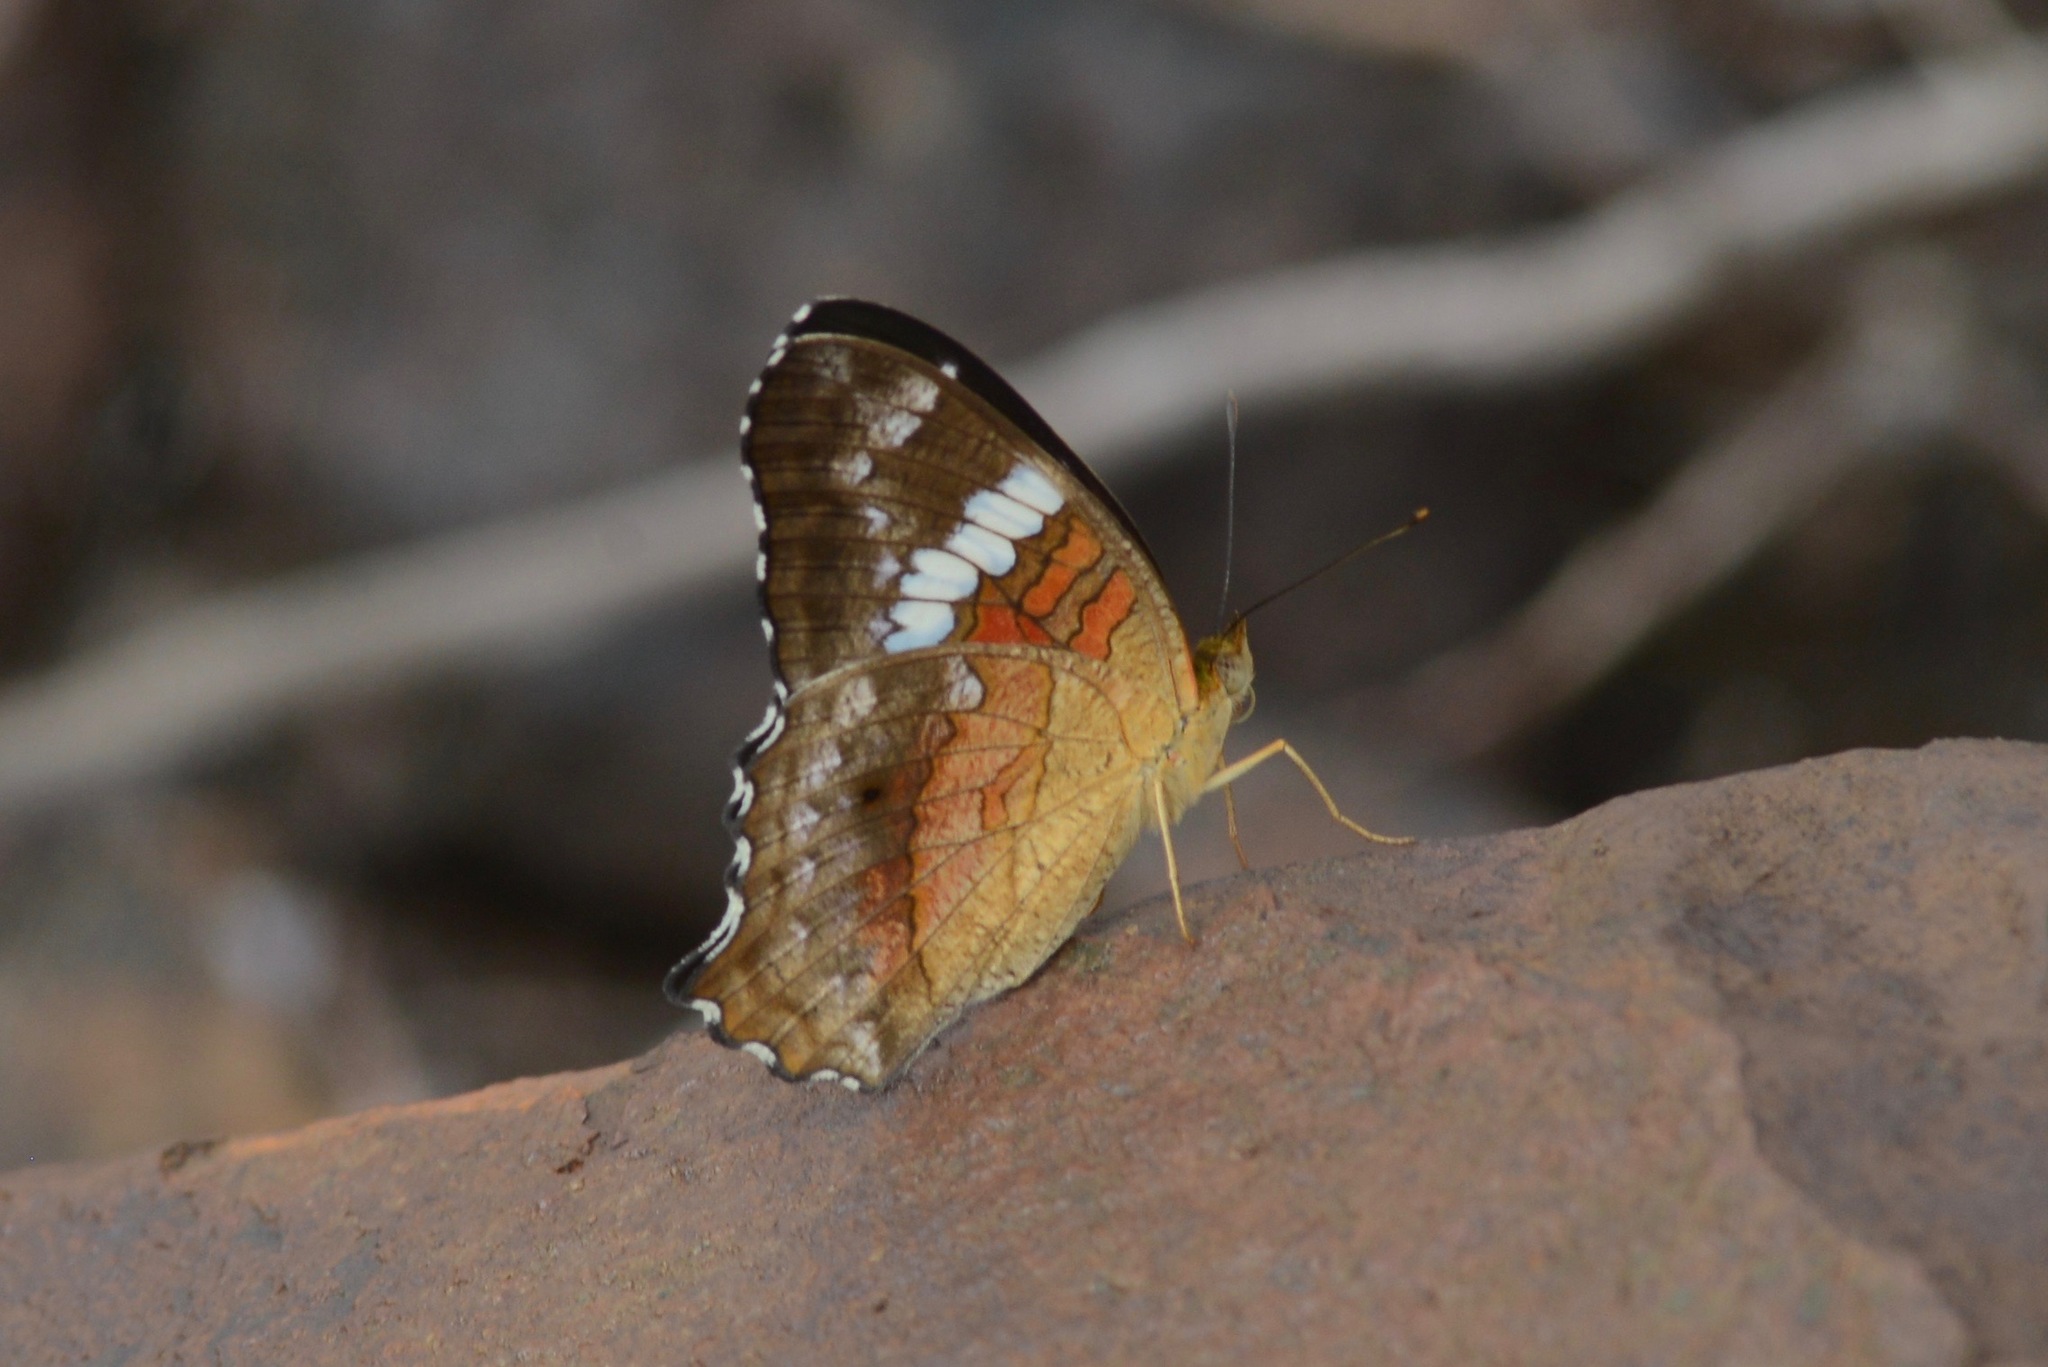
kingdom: Animalia
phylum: Arthropoda
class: Insecta
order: Lepidoptera
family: Nymphalidae
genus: Anartia
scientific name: Anartia amathea
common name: Red peacock
